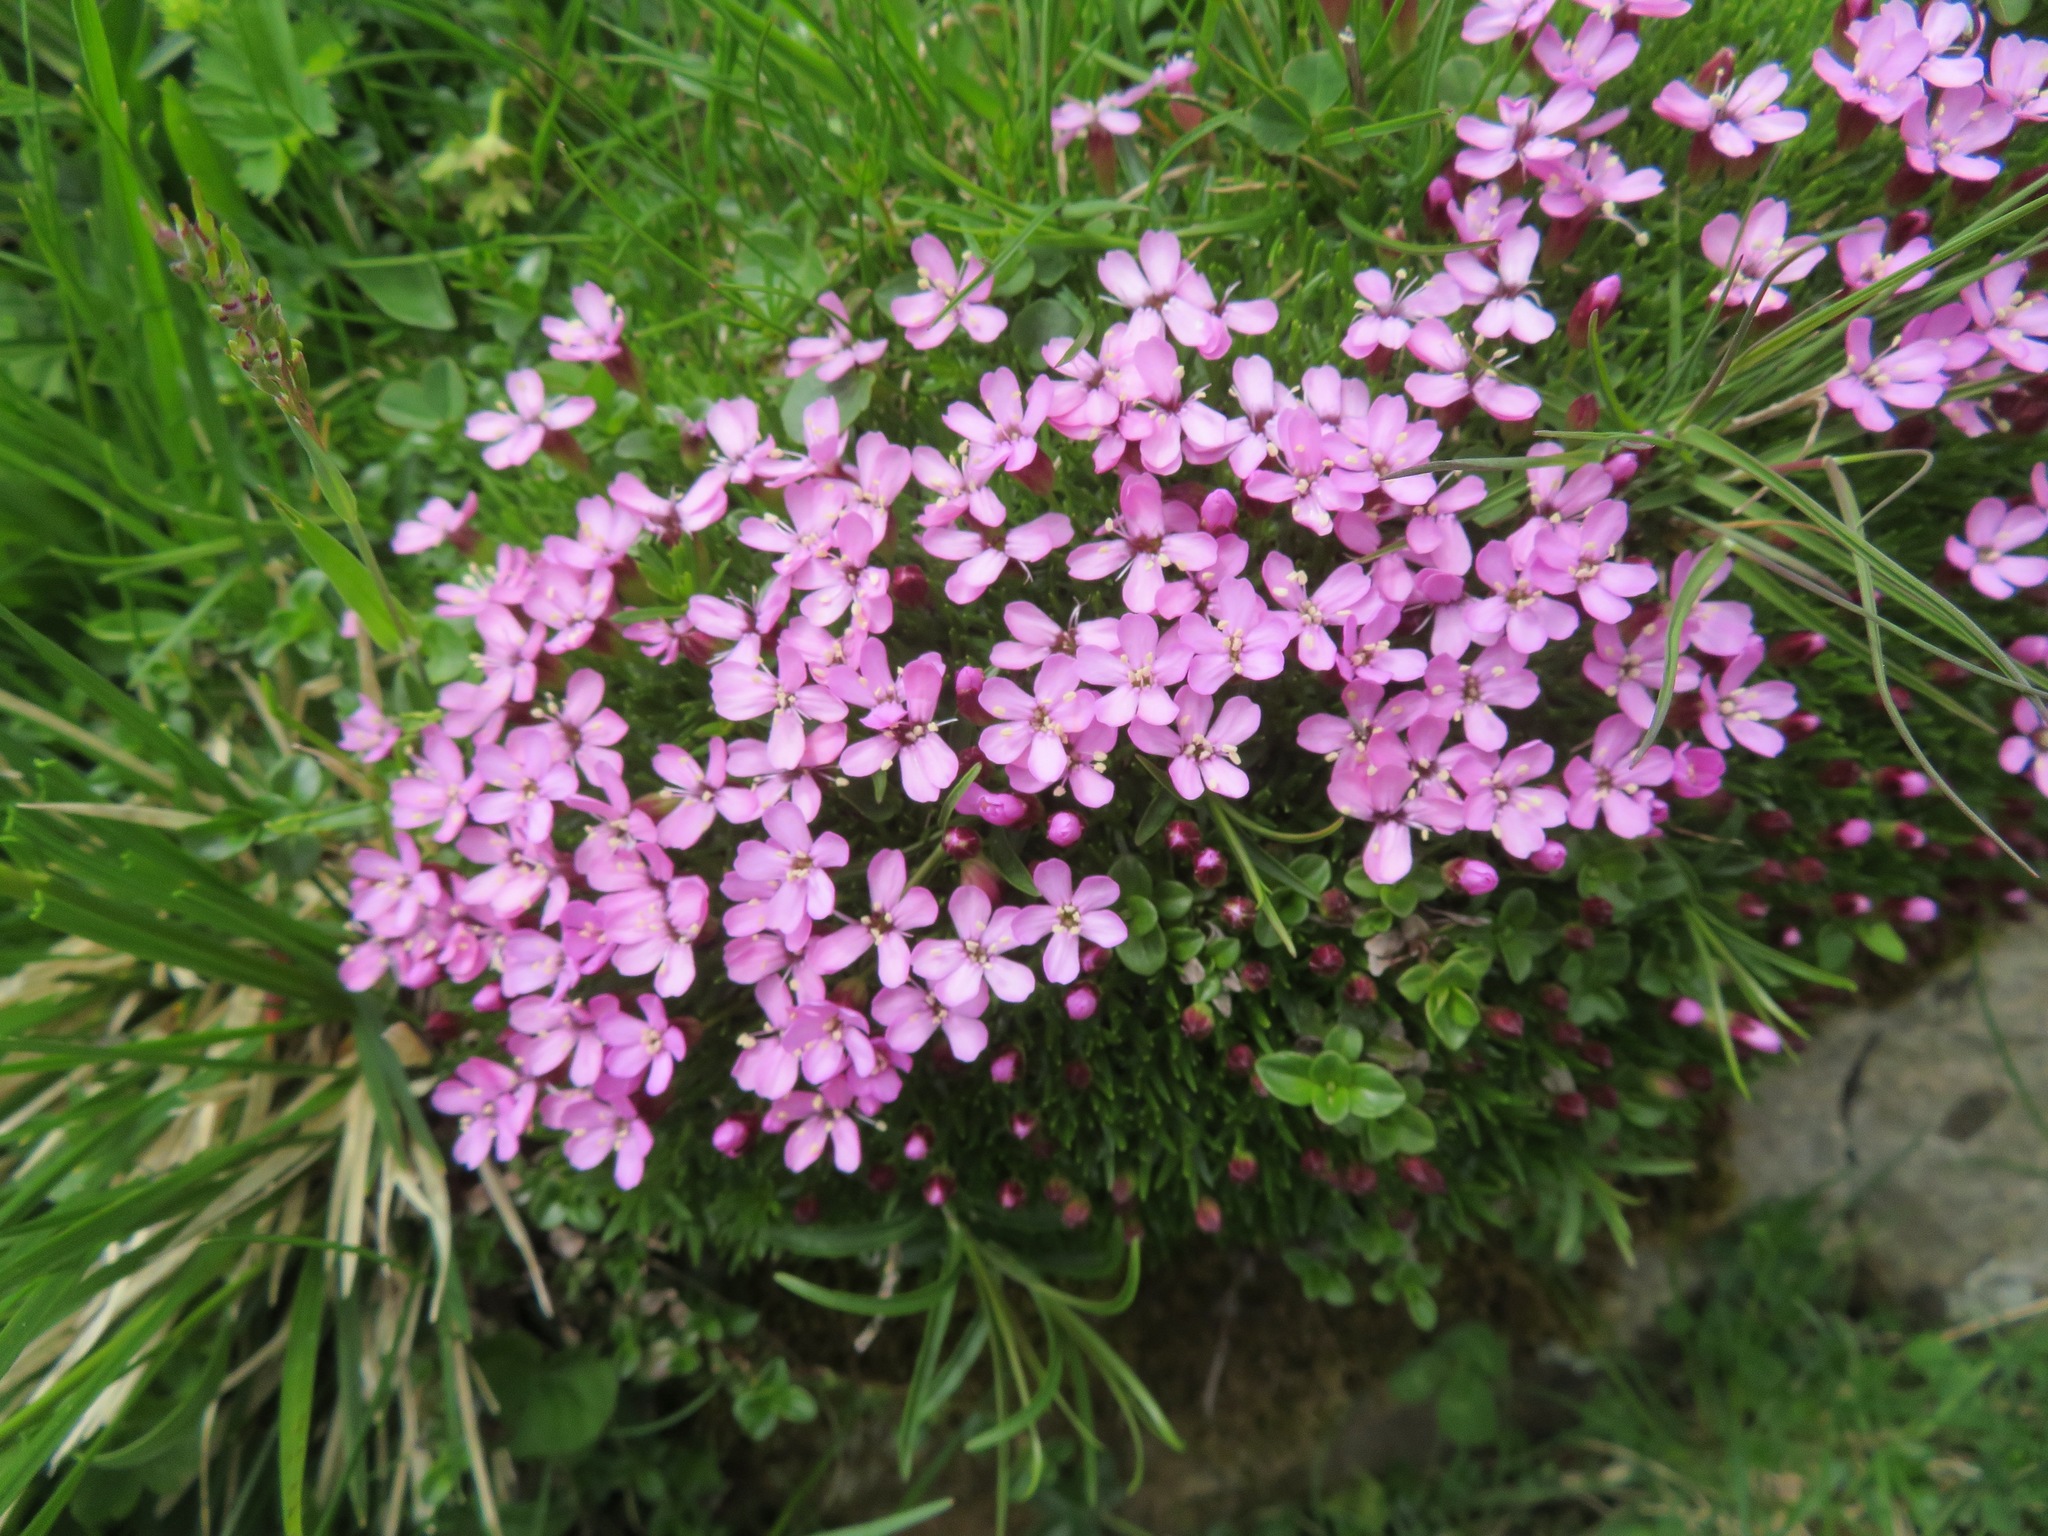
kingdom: Plantae
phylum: Tracheophyta
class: Magnoliopsida
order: Caryophyllales
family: Caryophyllaceae
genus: Silene
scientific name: Silene acaulis
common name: Moss campion
